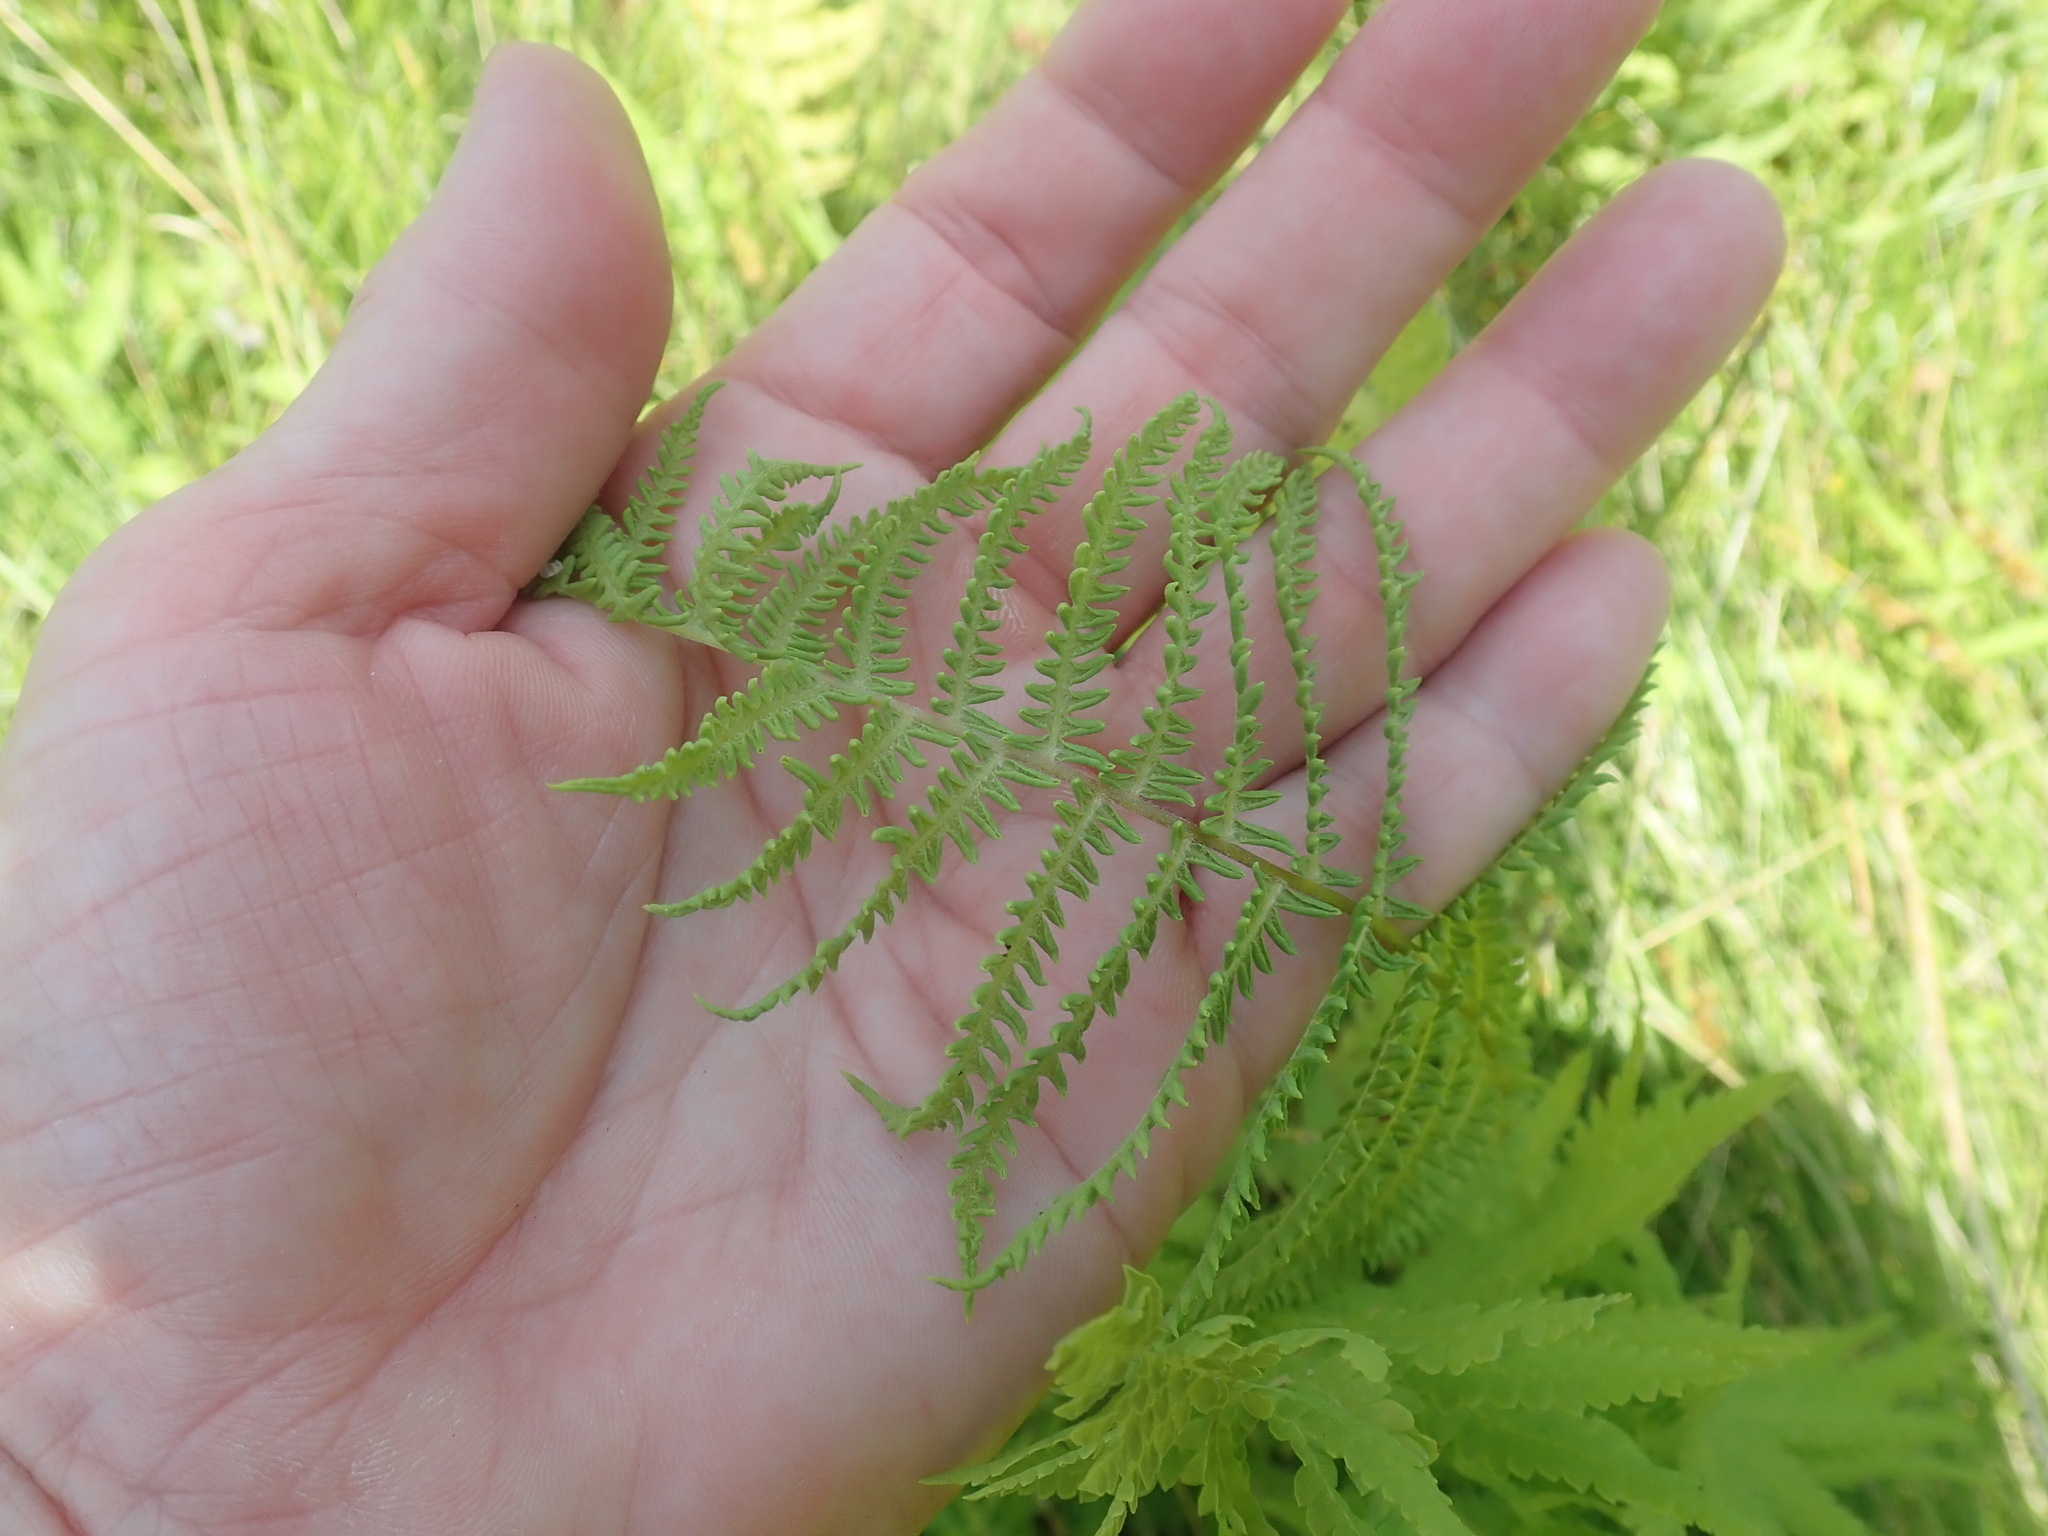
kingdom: Plantae
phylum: Tracheophyta
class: Polypodiopsida
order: Polypodiales
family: Thelypteridaceae
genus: Thelypteris
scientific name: Thelypteris palustris
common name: Marsh fern
